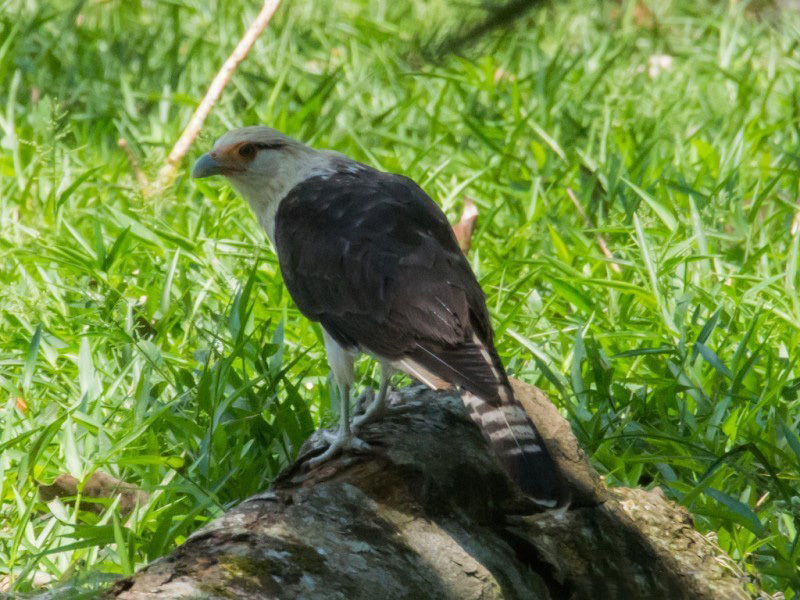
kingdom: Animalia
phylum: Chordata
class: Aves
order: Falconiformes
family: Falconidae
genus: Daptrius
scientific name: Daptrius
